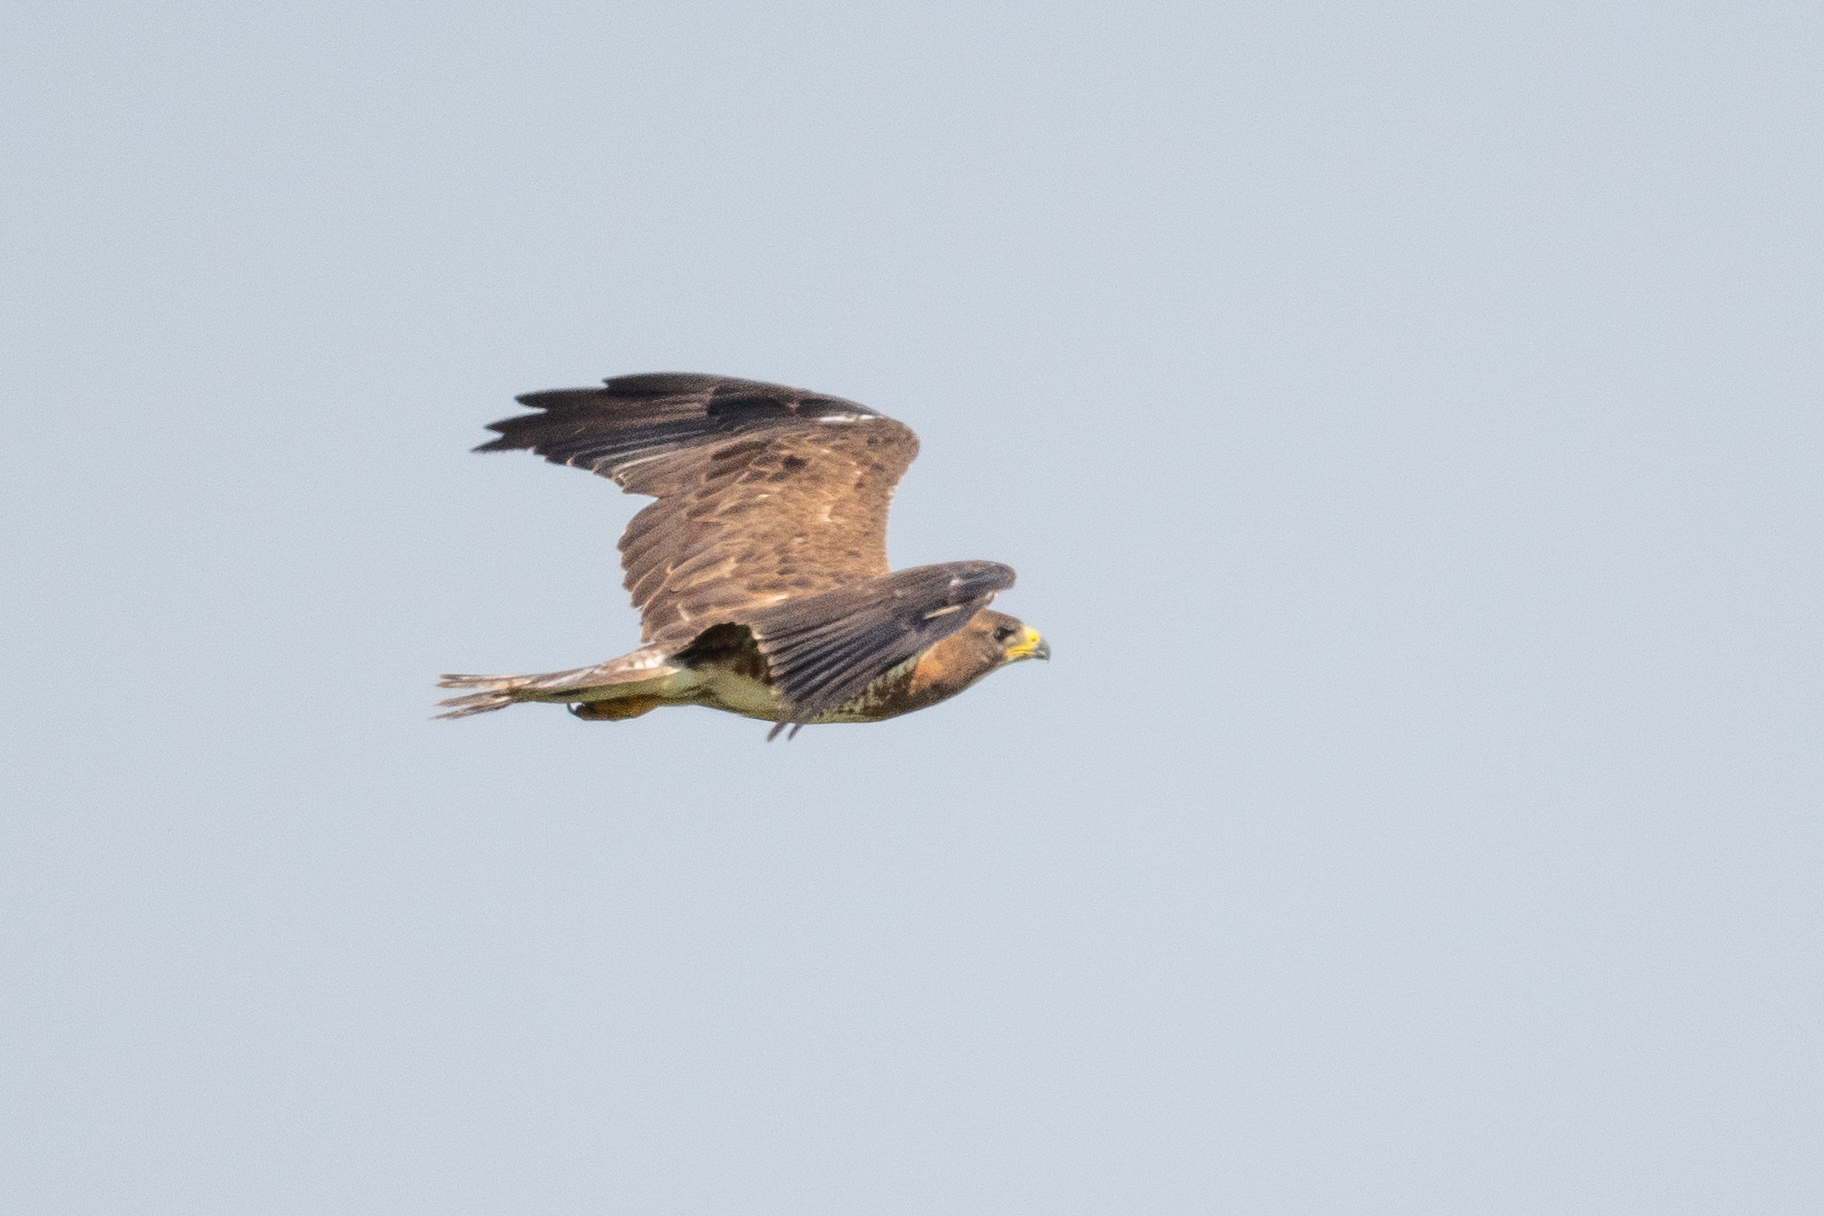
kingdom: Animalia
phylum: Chordata
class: Aves
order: Accipitriformes
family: Accipitridae
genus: Buteo
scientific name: Buteo swainsoni
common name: Swainson's hawk
